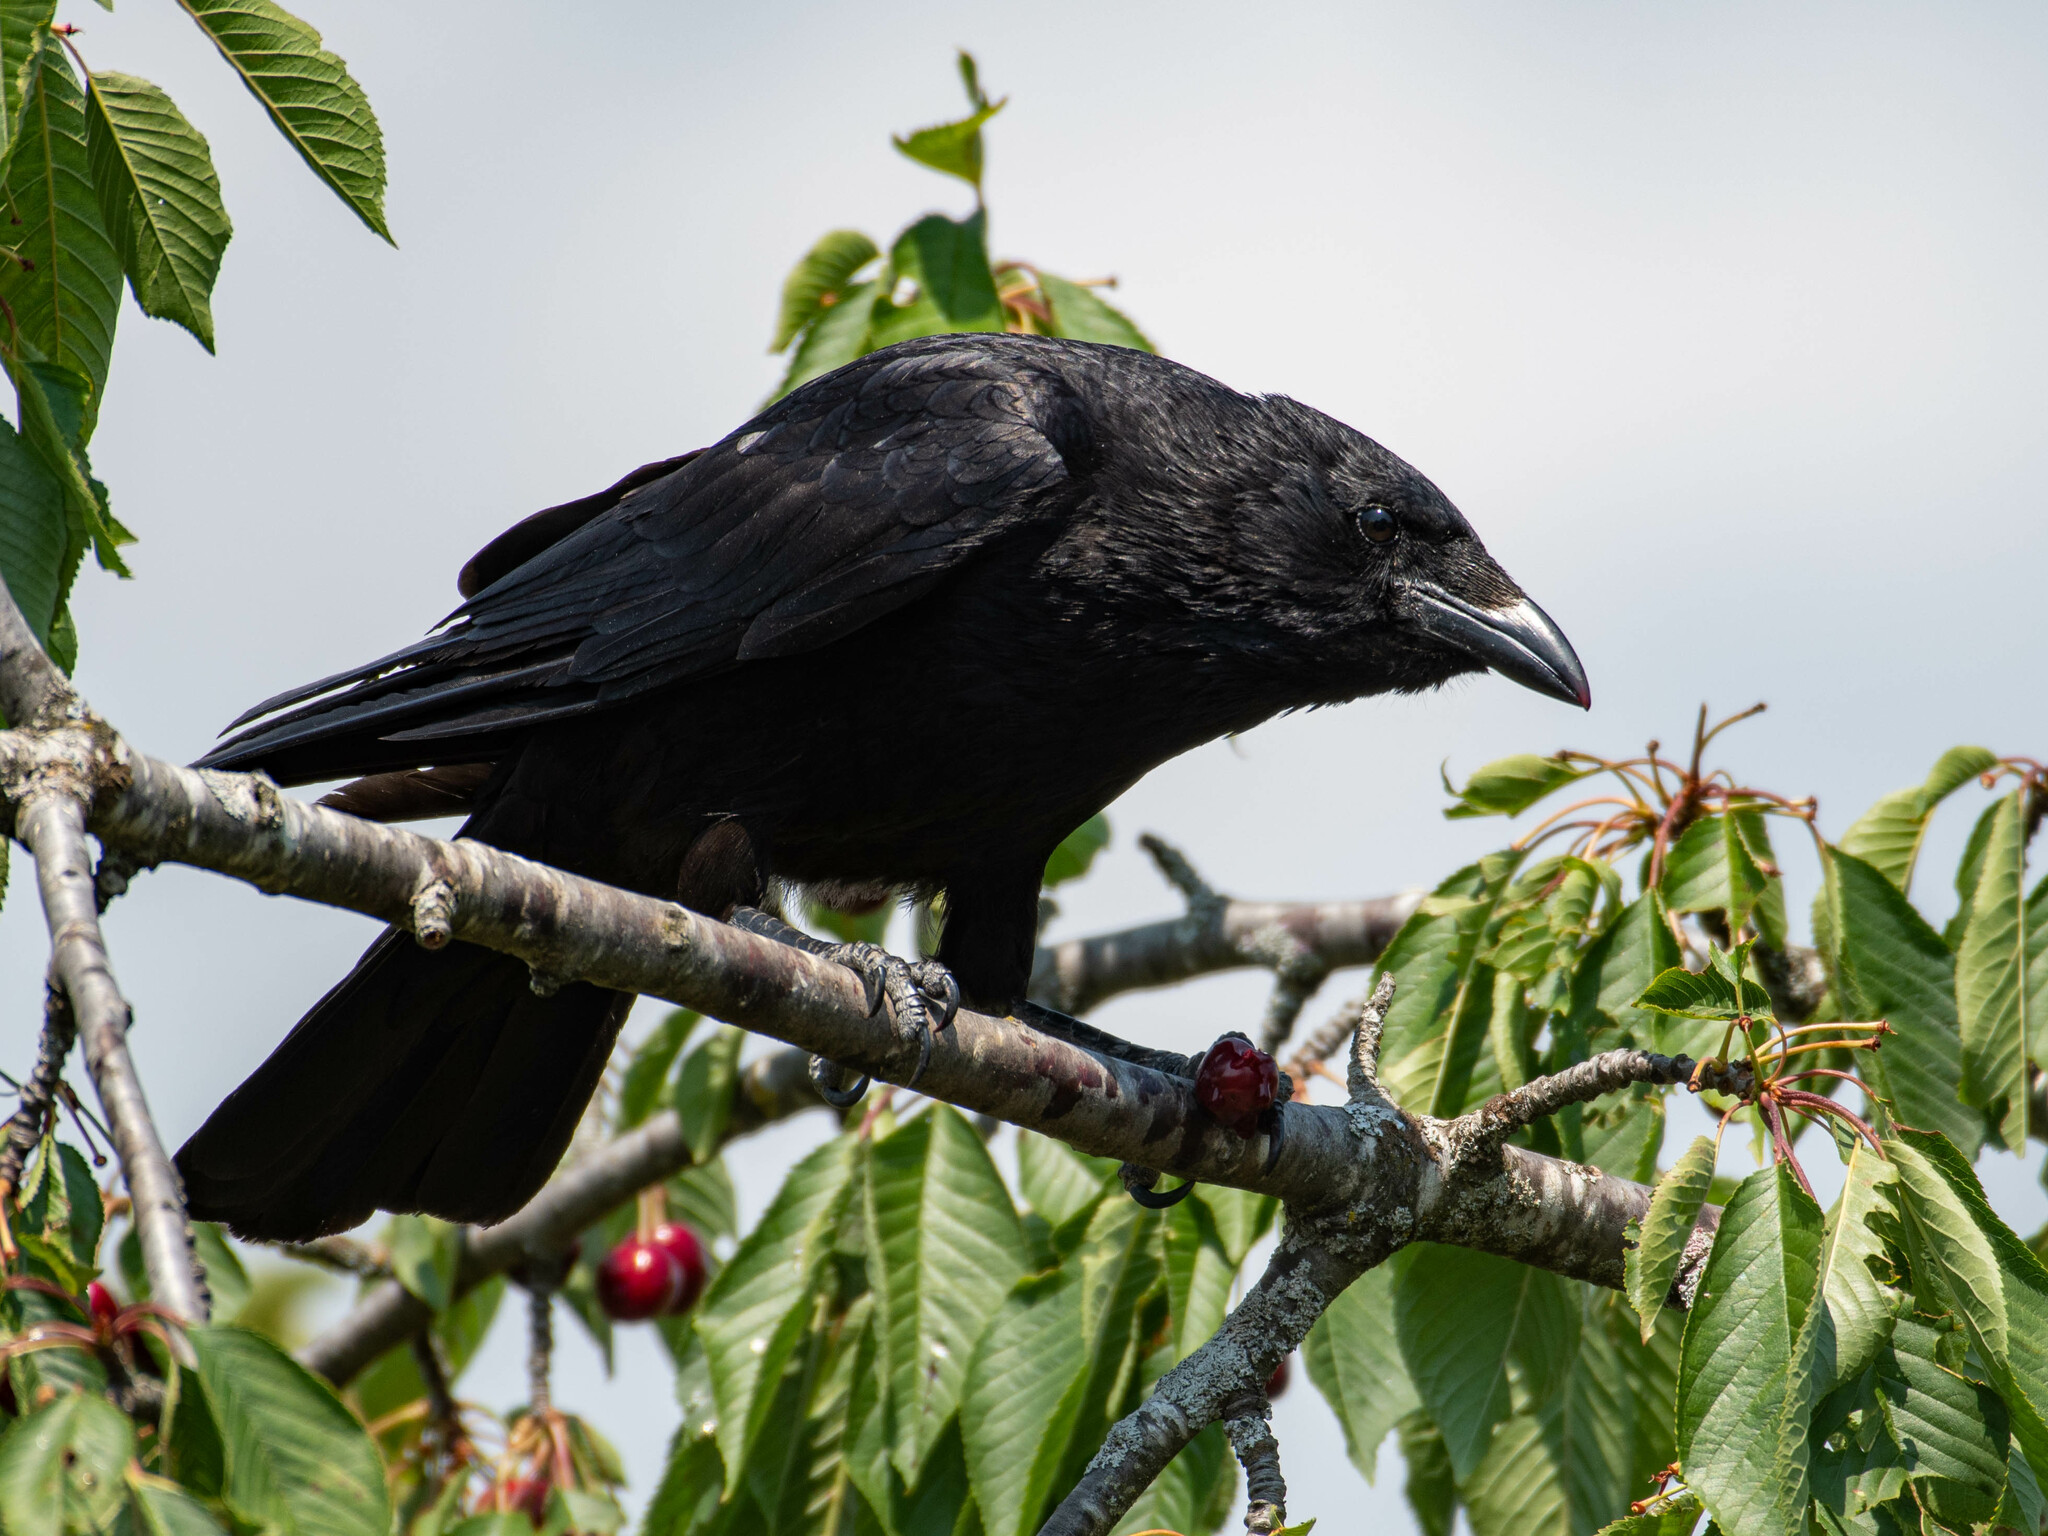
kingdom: Animalia
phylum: Chordata
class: Aves
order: Passeriformes
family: Corvidae
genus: Corvus
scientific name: Corvus corone
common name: Carrion crow
